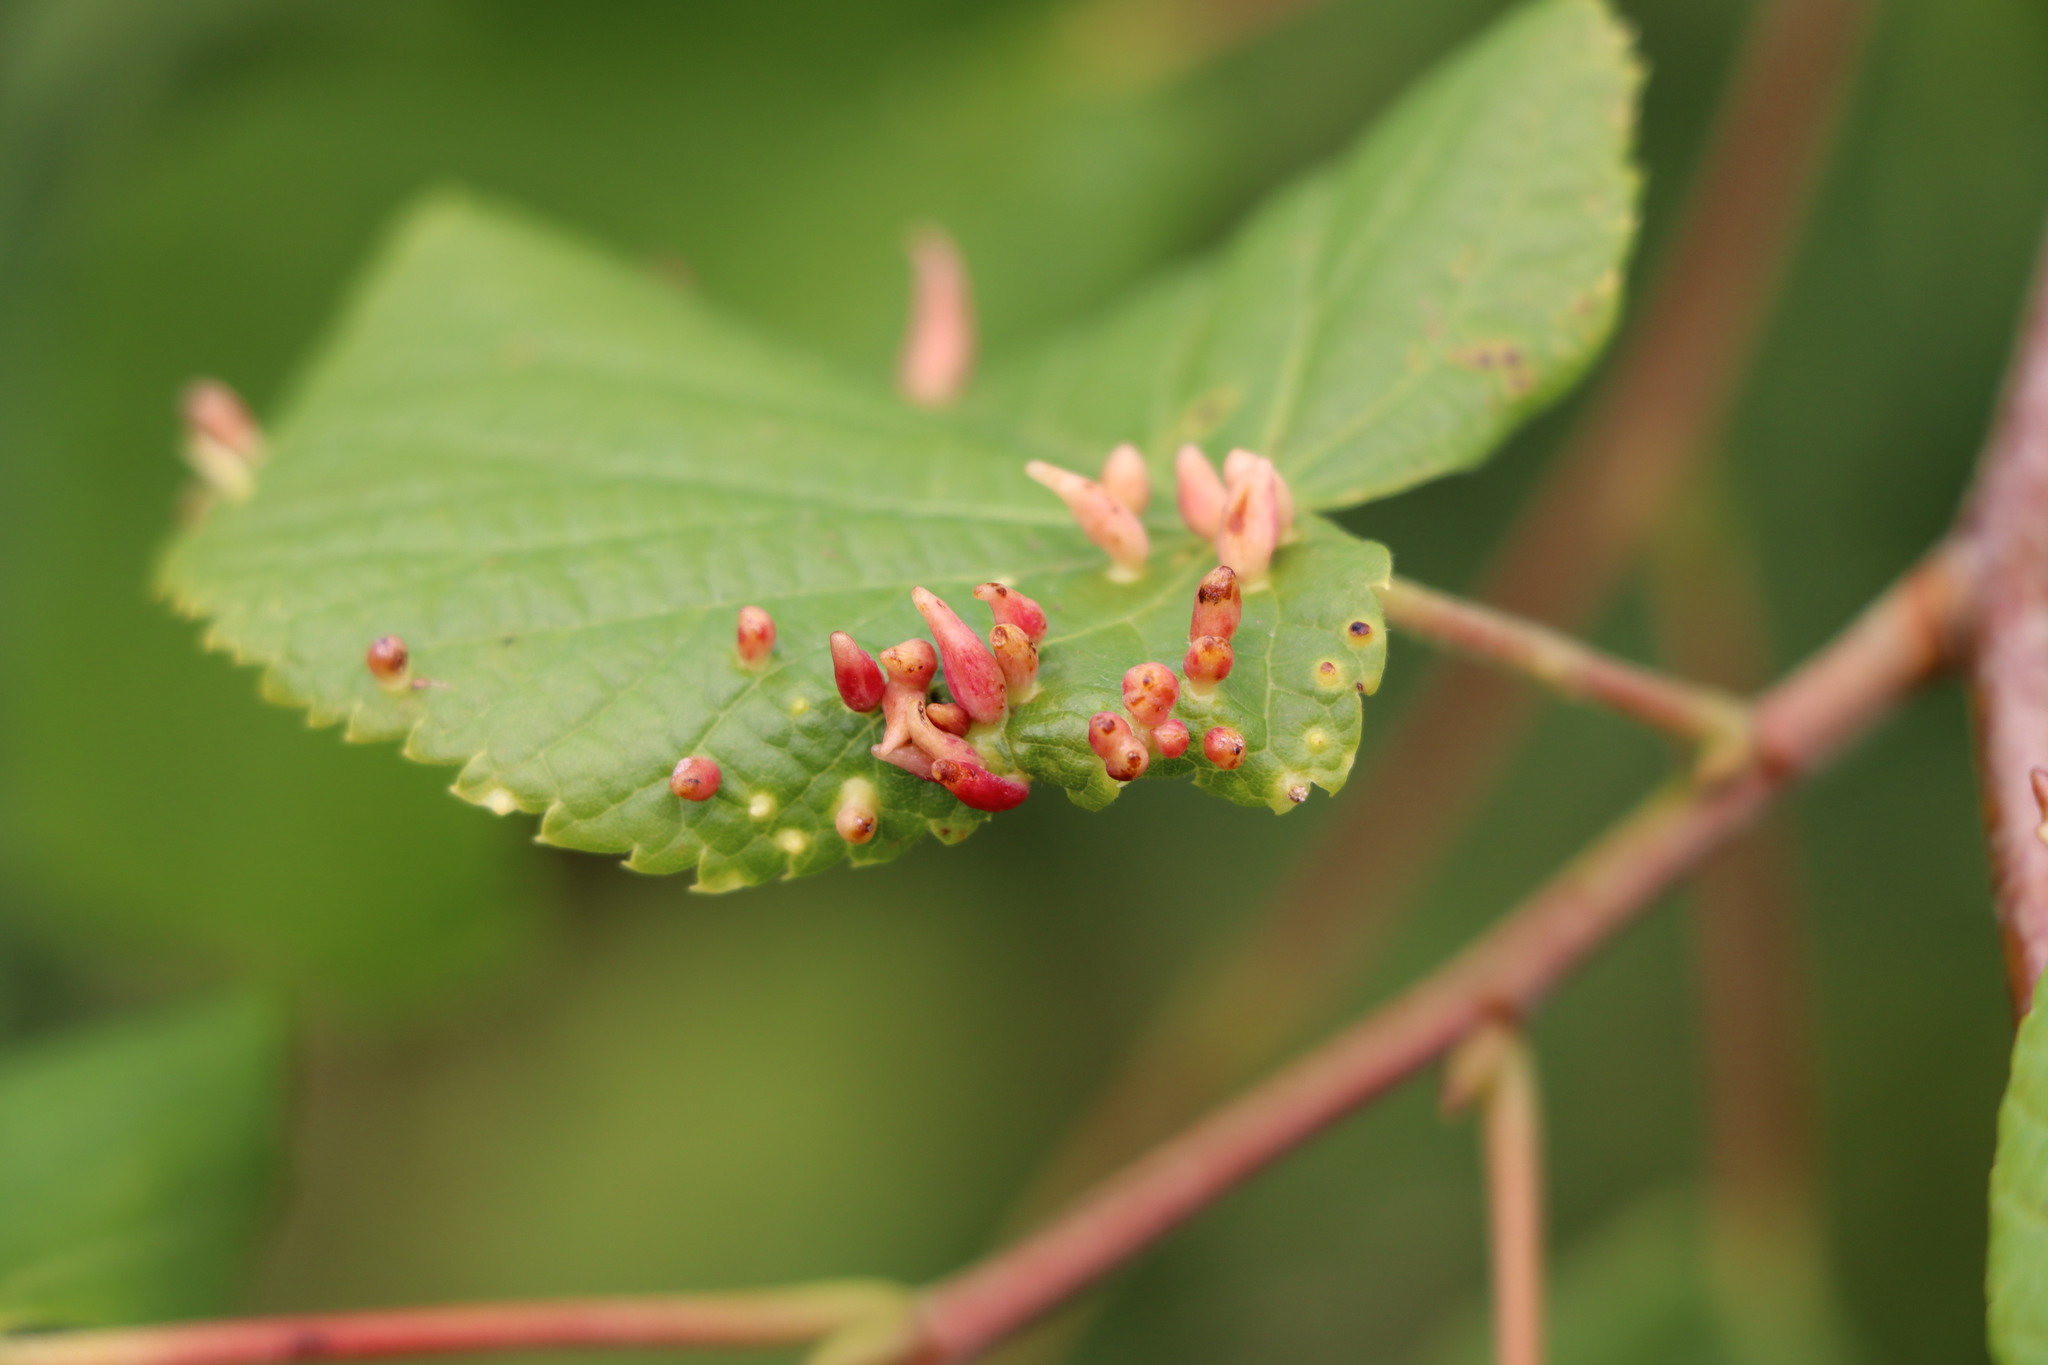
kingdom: Animalia
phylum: Arthropoda
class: Arachnida
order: Trombidiformes
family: Eriophyidae
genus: Eriophyes
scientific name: Eriophyes tiliae
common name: Red nail gall mite
